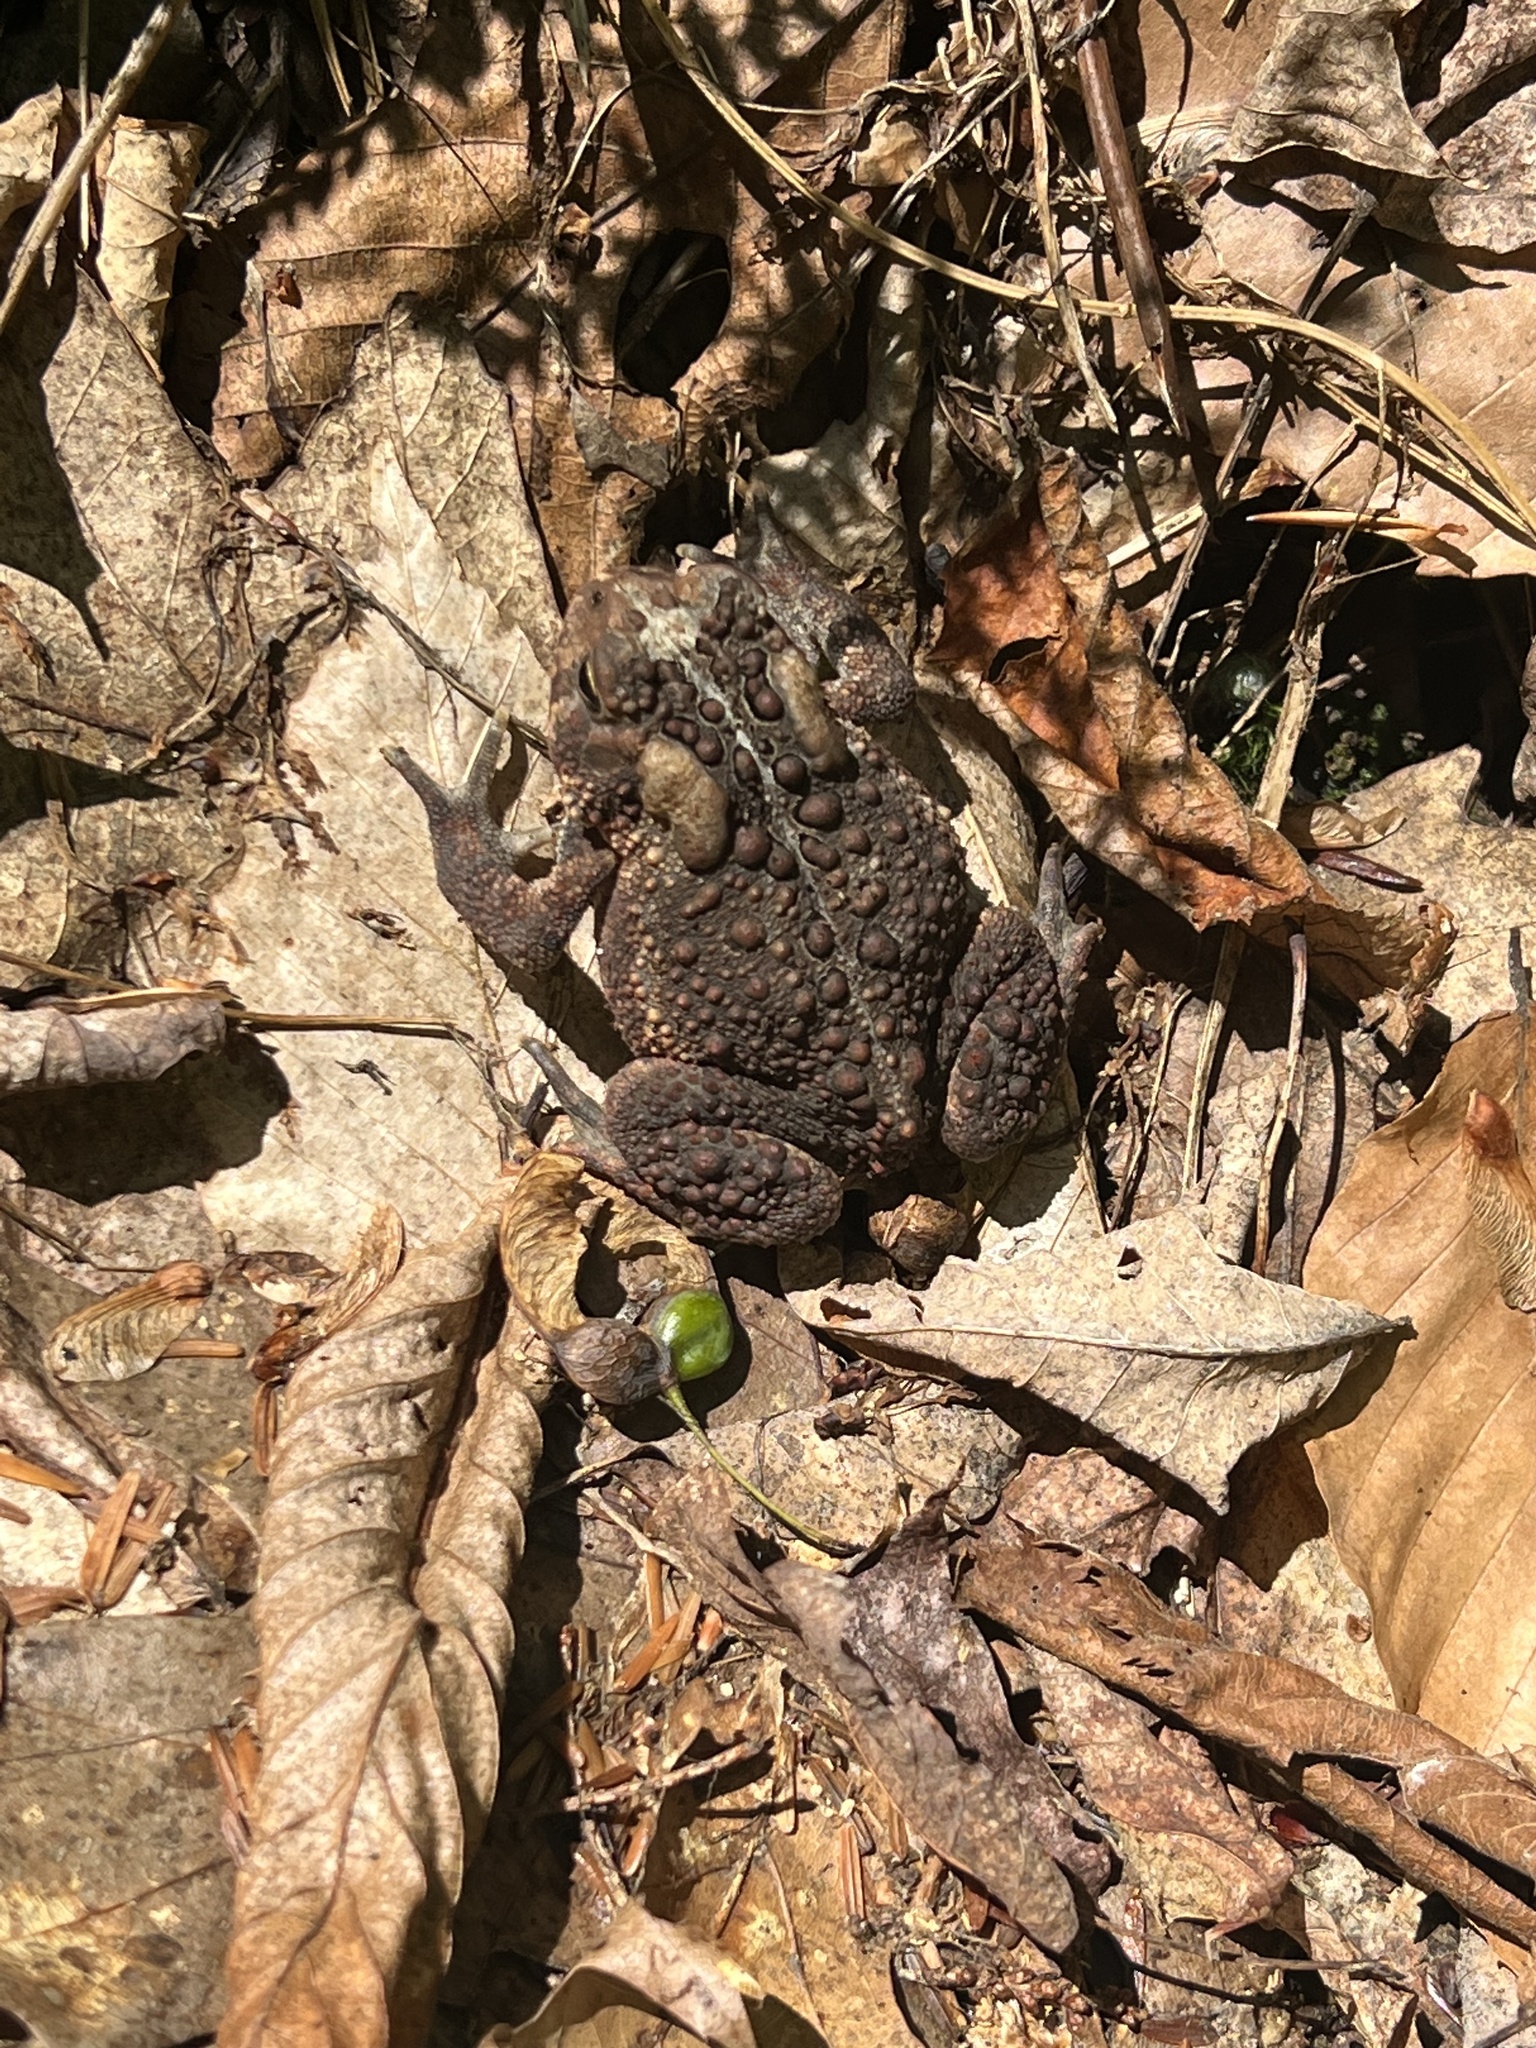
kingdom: Animalia
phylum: Chordata
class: Amphibia
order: Anura
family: Bufonidae
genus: Anaxyrus
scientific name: Anaxyrus americanus
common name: American toad
